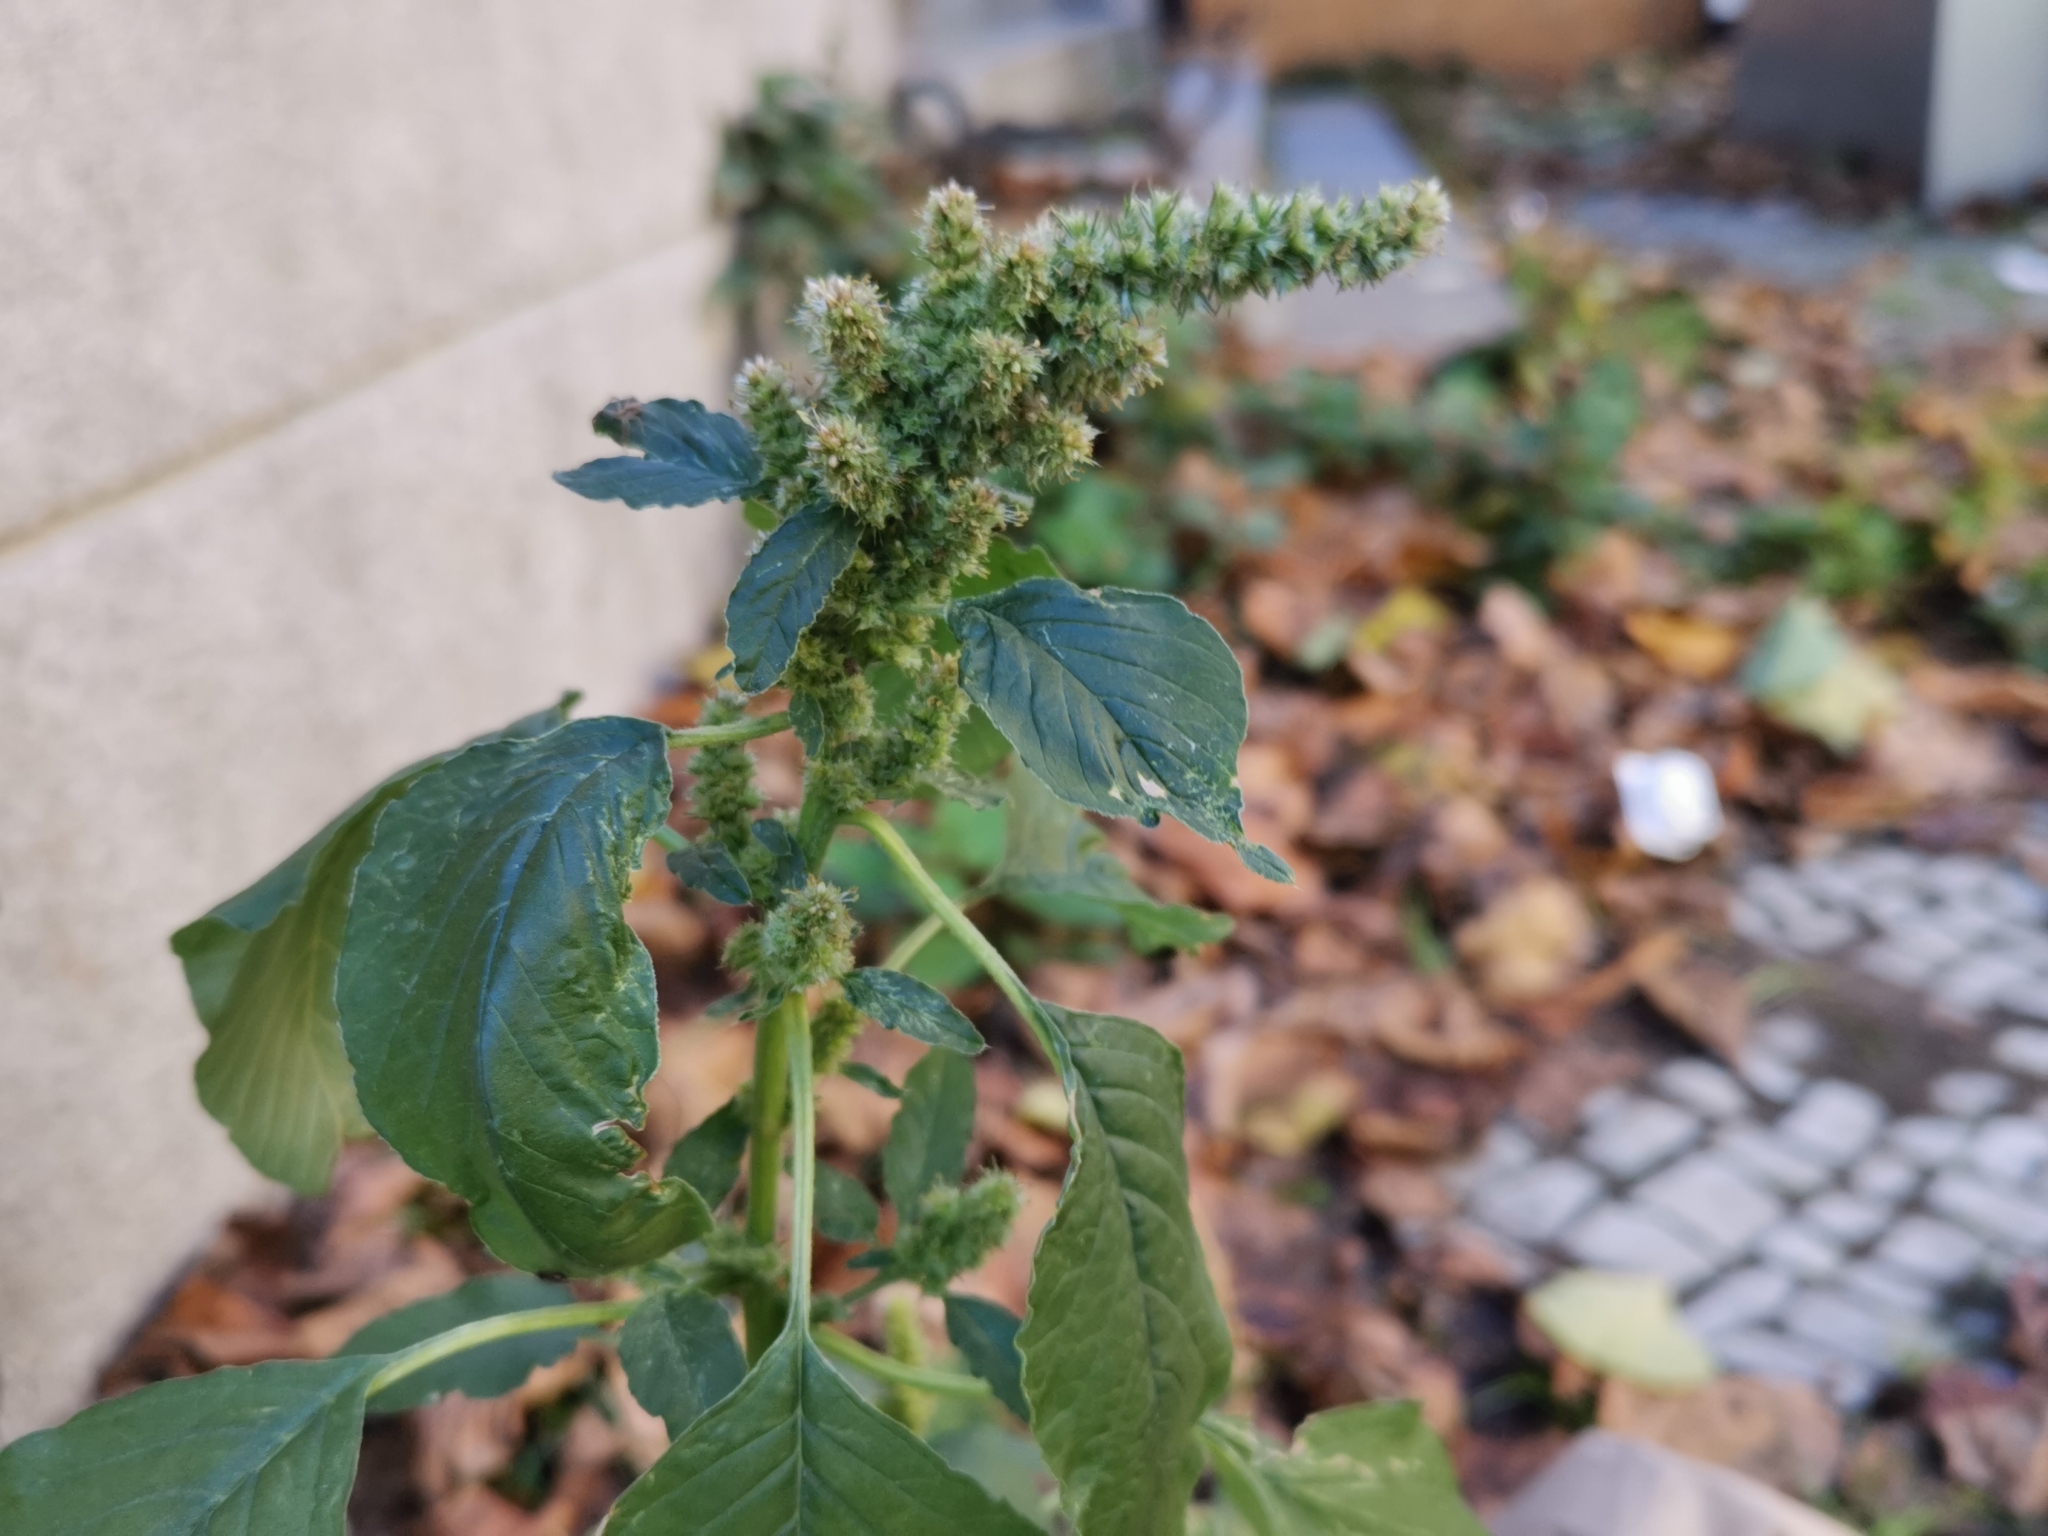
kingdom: Plantae
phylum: Tracheophyta
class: Magnoliopsida
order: Caryophyllales
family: Amaranthaceae
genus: Amaranthus
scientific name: Amaranthus retroflexus
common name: Redroot amaranth
